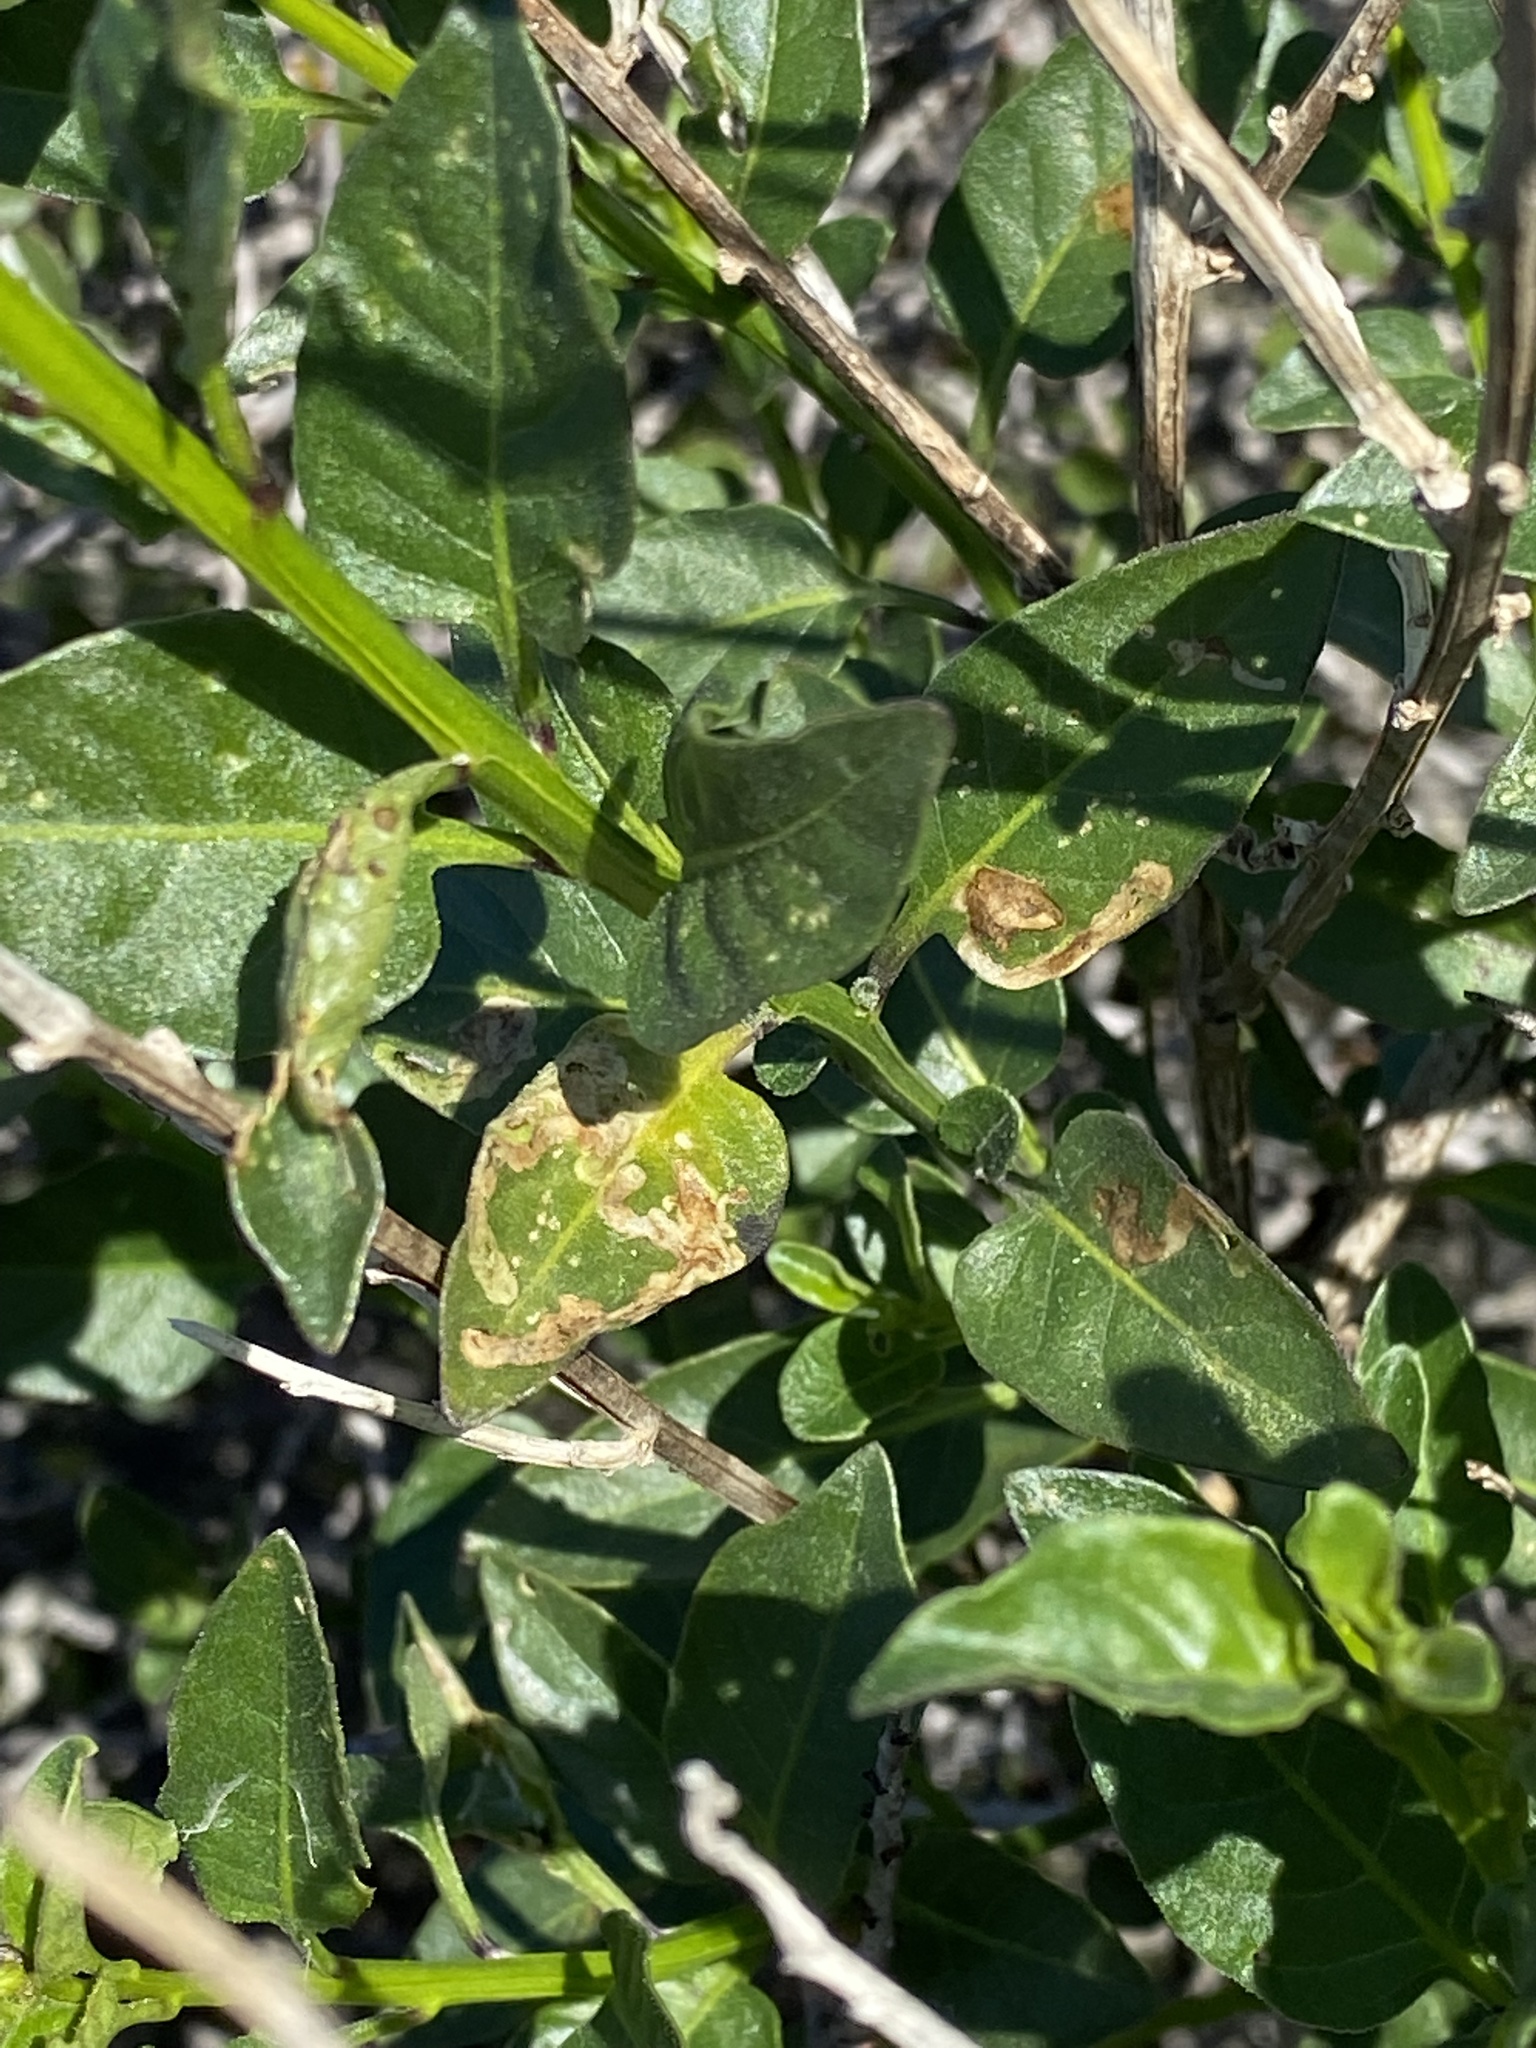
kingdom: Plantae
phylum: Tracheophyta
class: Magnoliopsida
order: Solanales
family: Solanaceae
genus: Solanum
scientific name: Solanum umbelliferum
